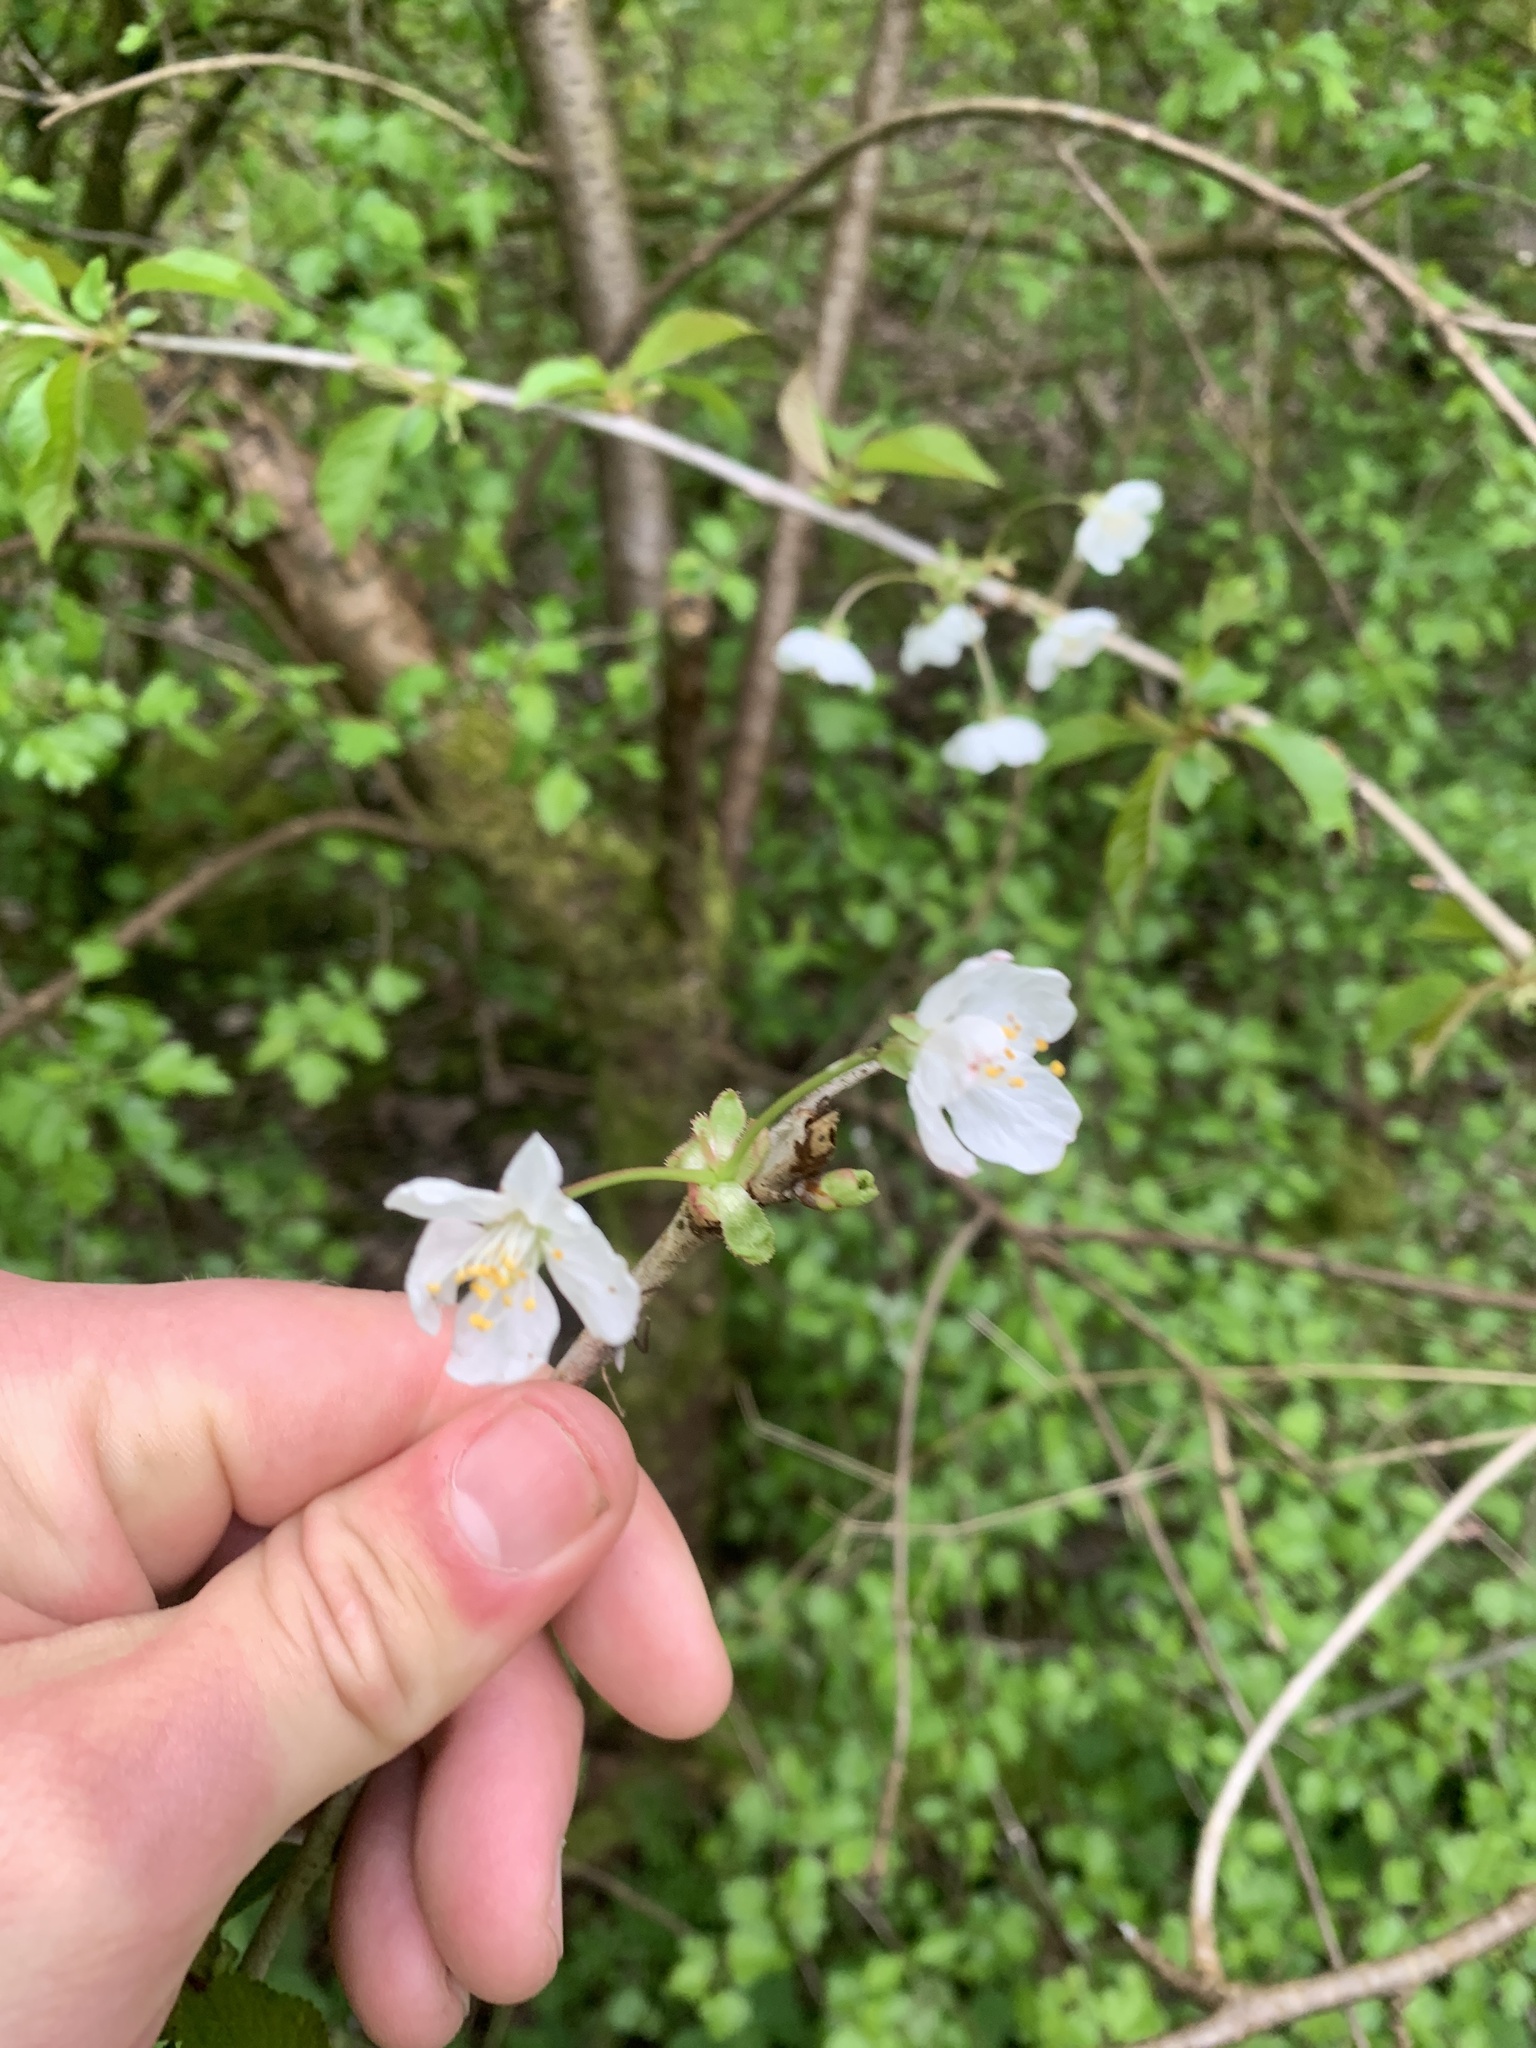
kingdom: Plantae
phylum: Tracheophyta
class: Magnoliopsida
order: Rosales
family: Rosaceae
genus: Prunus
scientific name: Prunus cerasifera
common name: Cherry plum
